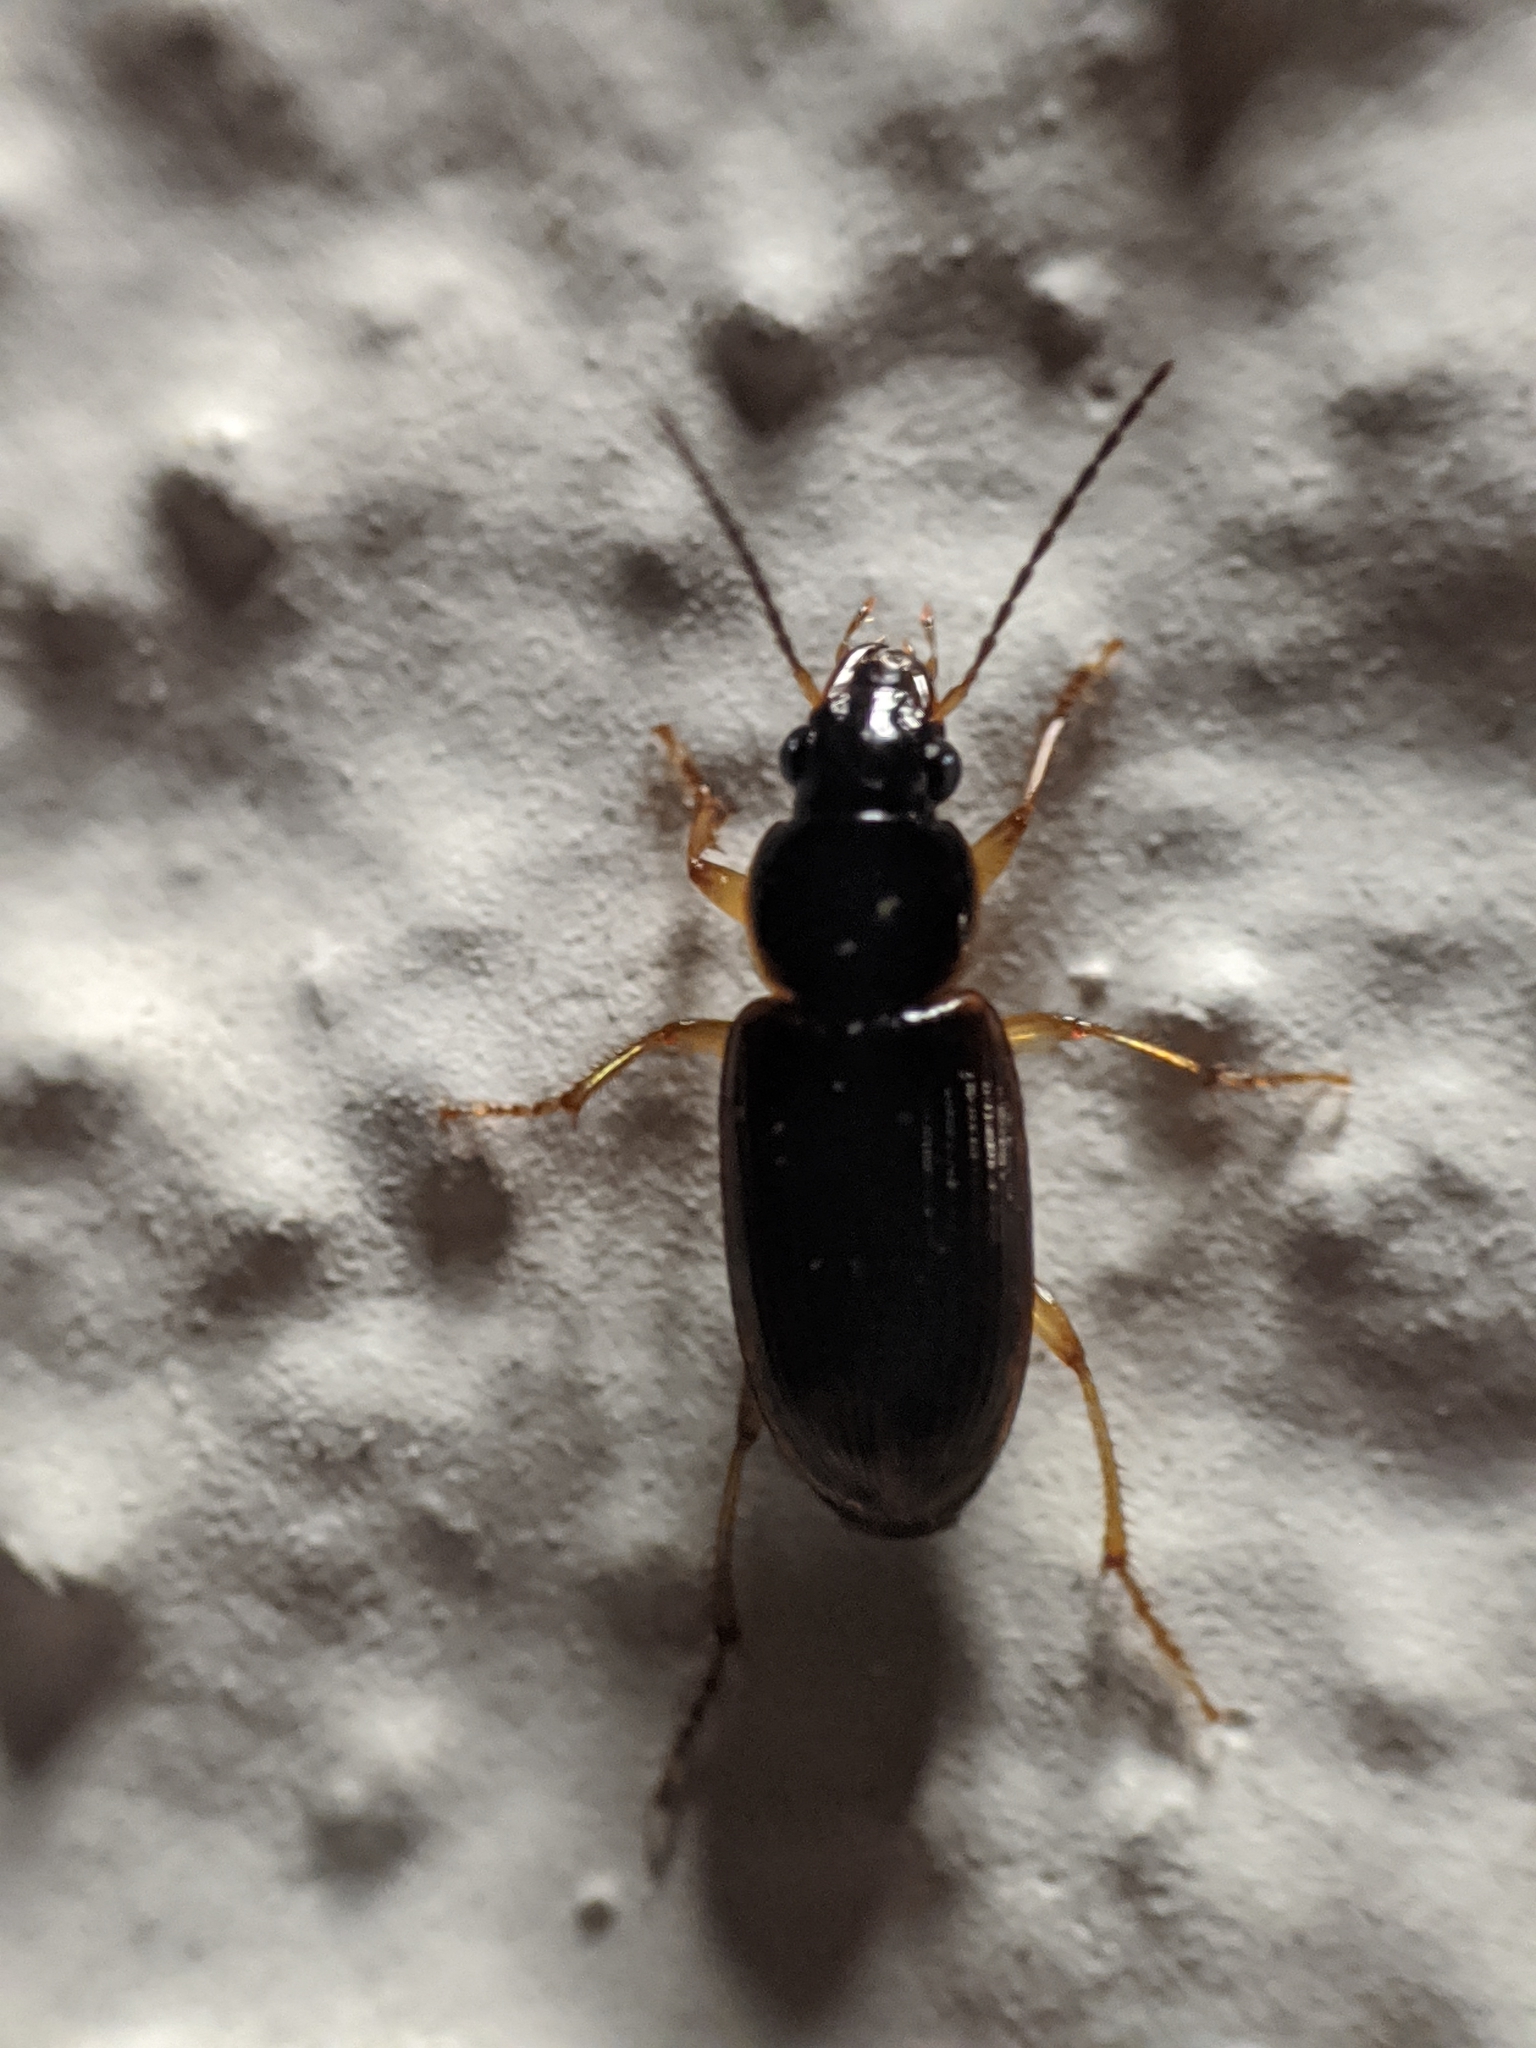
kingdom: Animalia
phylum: Arthropoda
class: Insecta
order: Coleoptera
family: Carabidae
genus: Stenolophus
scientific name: Stenolophus ochropezus
